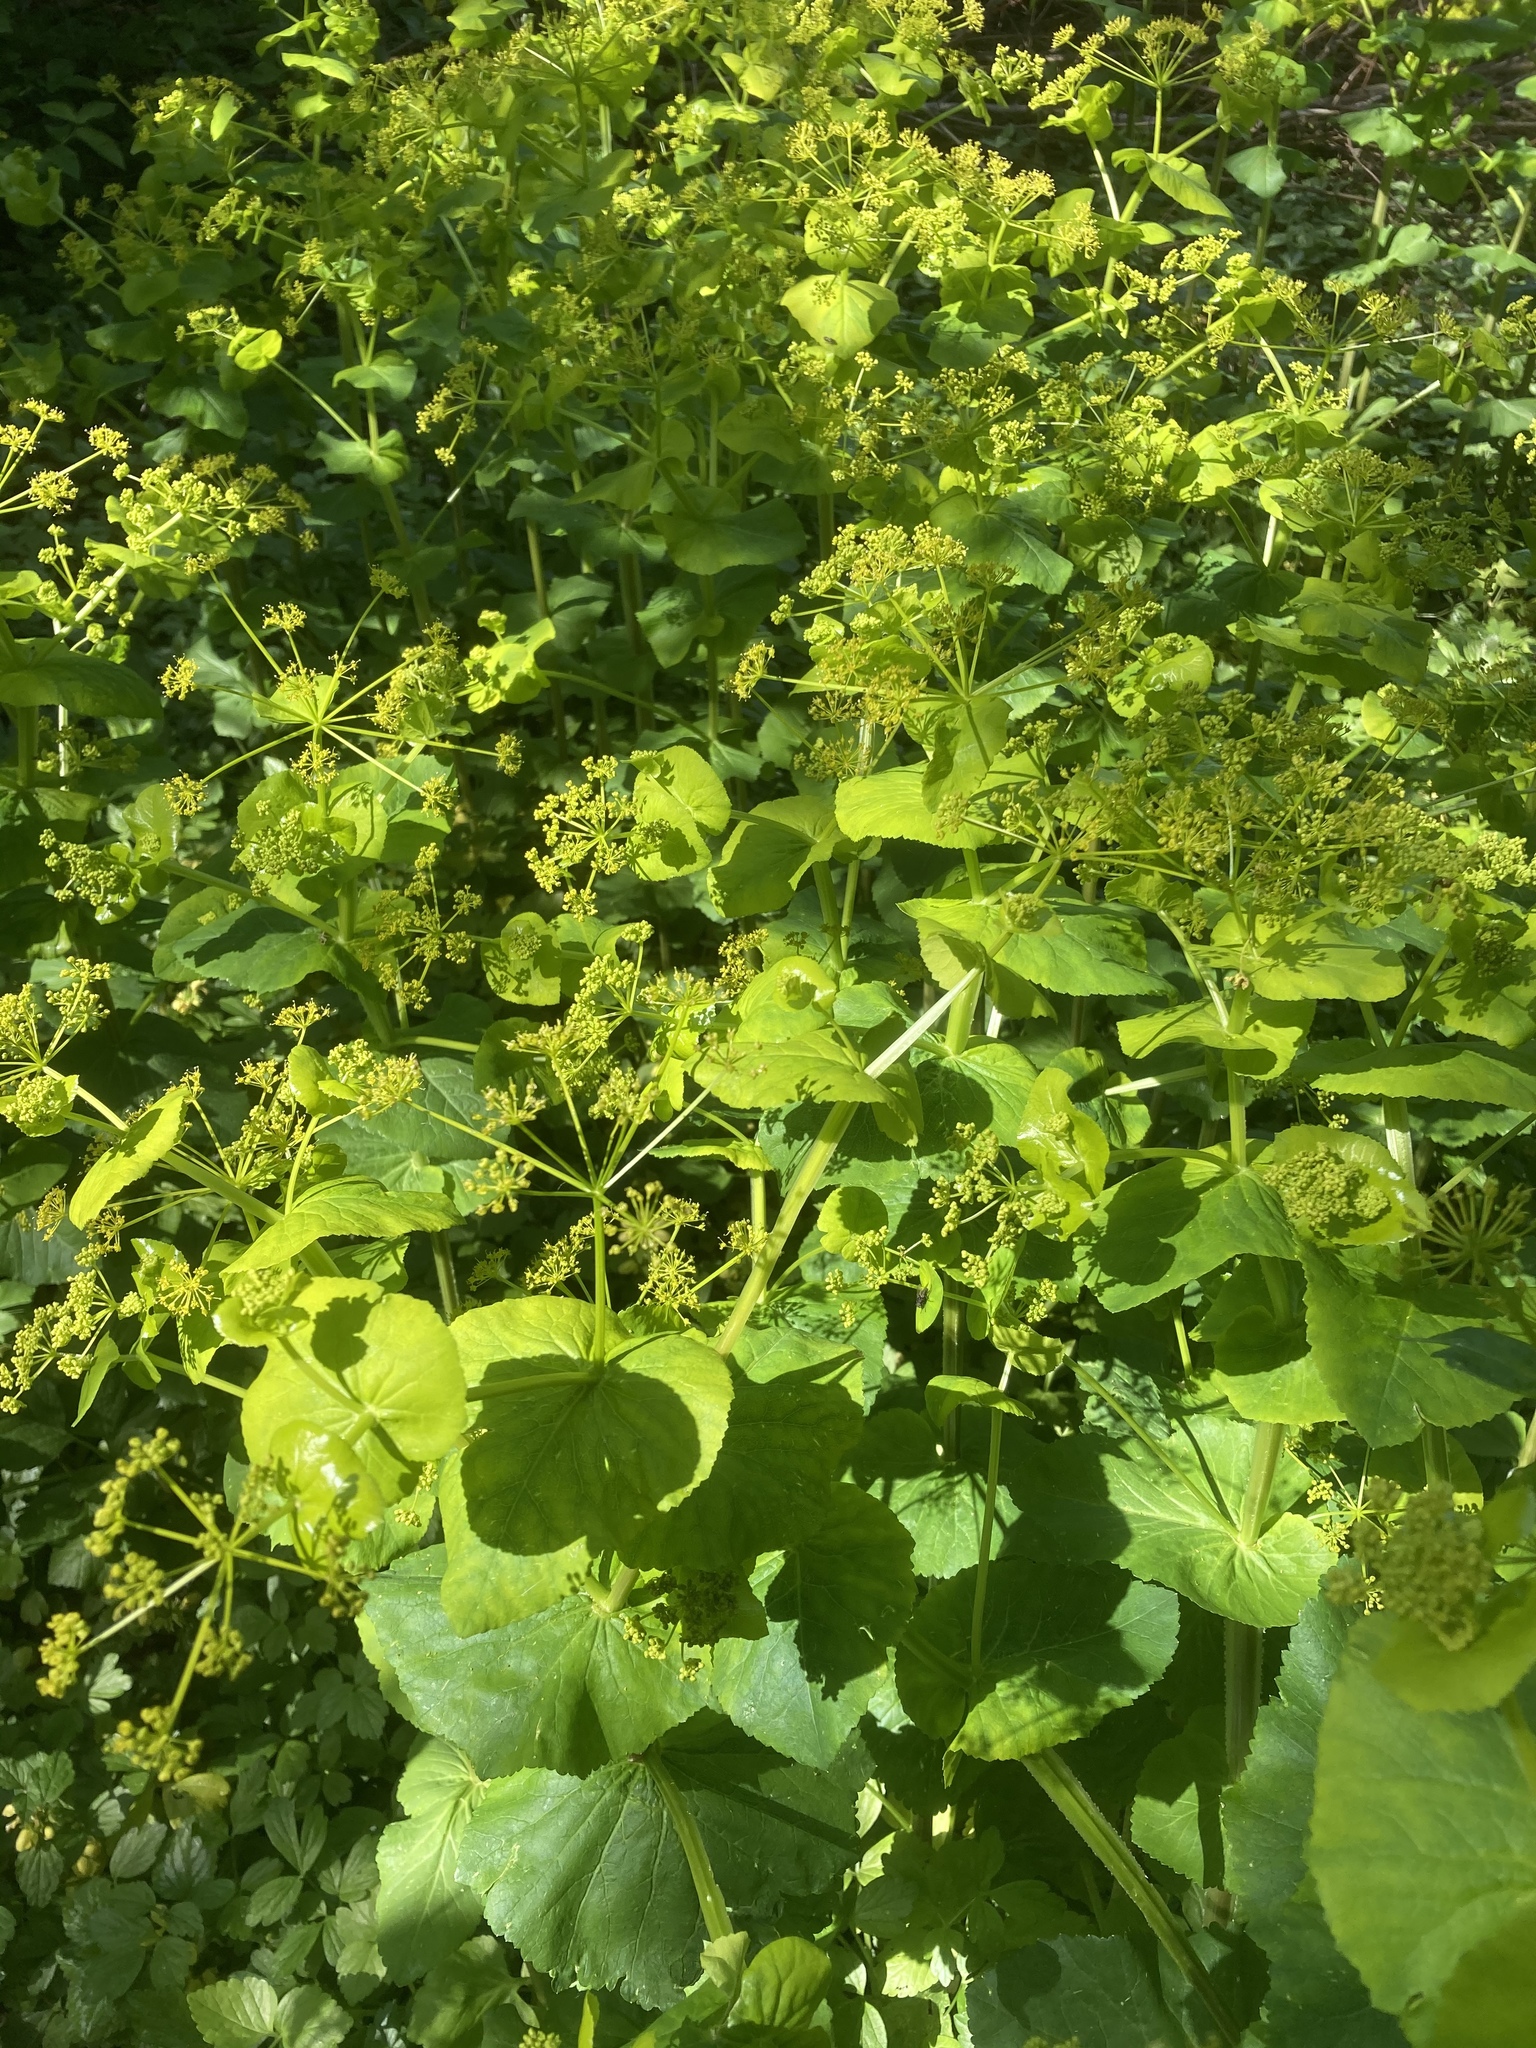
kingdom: Plantae
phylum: Tracheophyta
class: Magnoliopsida
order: Apiales
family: Apiaceae
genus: Smyrnium
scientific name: Smyrnium perfoliatum
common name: Perfoliate alexanders
